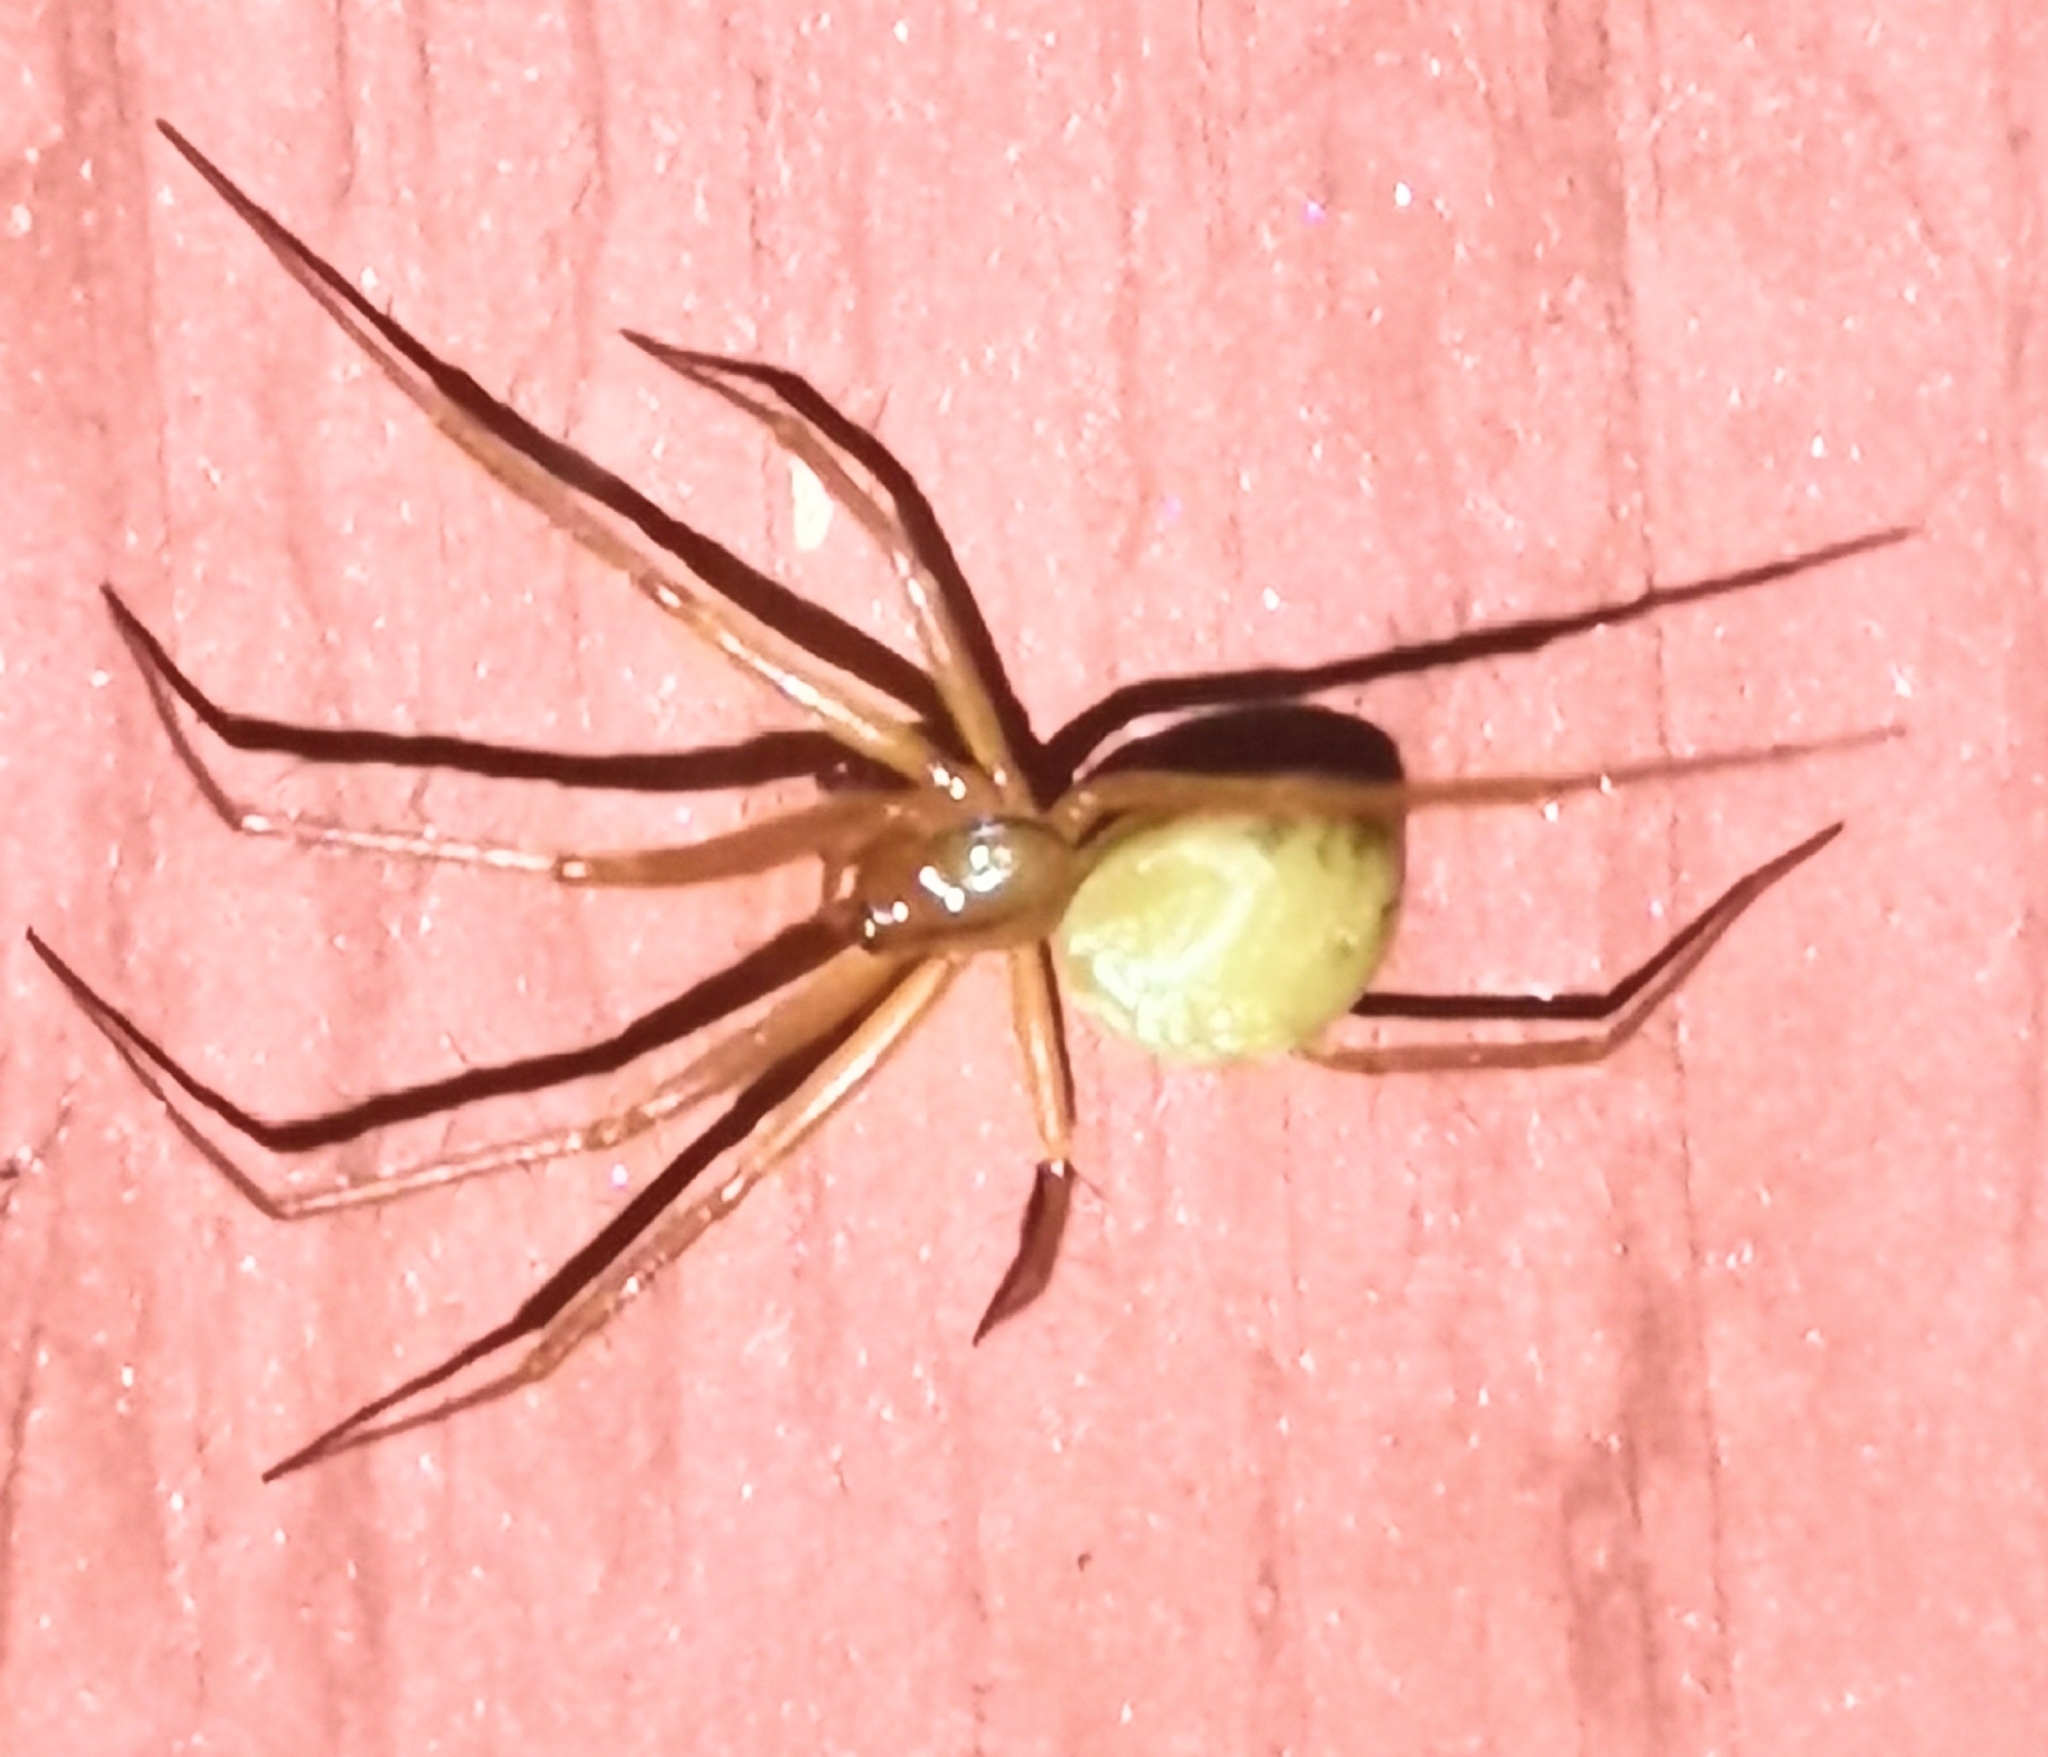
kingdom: Animalia
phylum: Arthropoda
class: Arachnida
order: Araneae
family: Theridiidae
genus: Enoplognatha
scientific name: Enoplognatha ovata
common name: Common candy-striped spider
